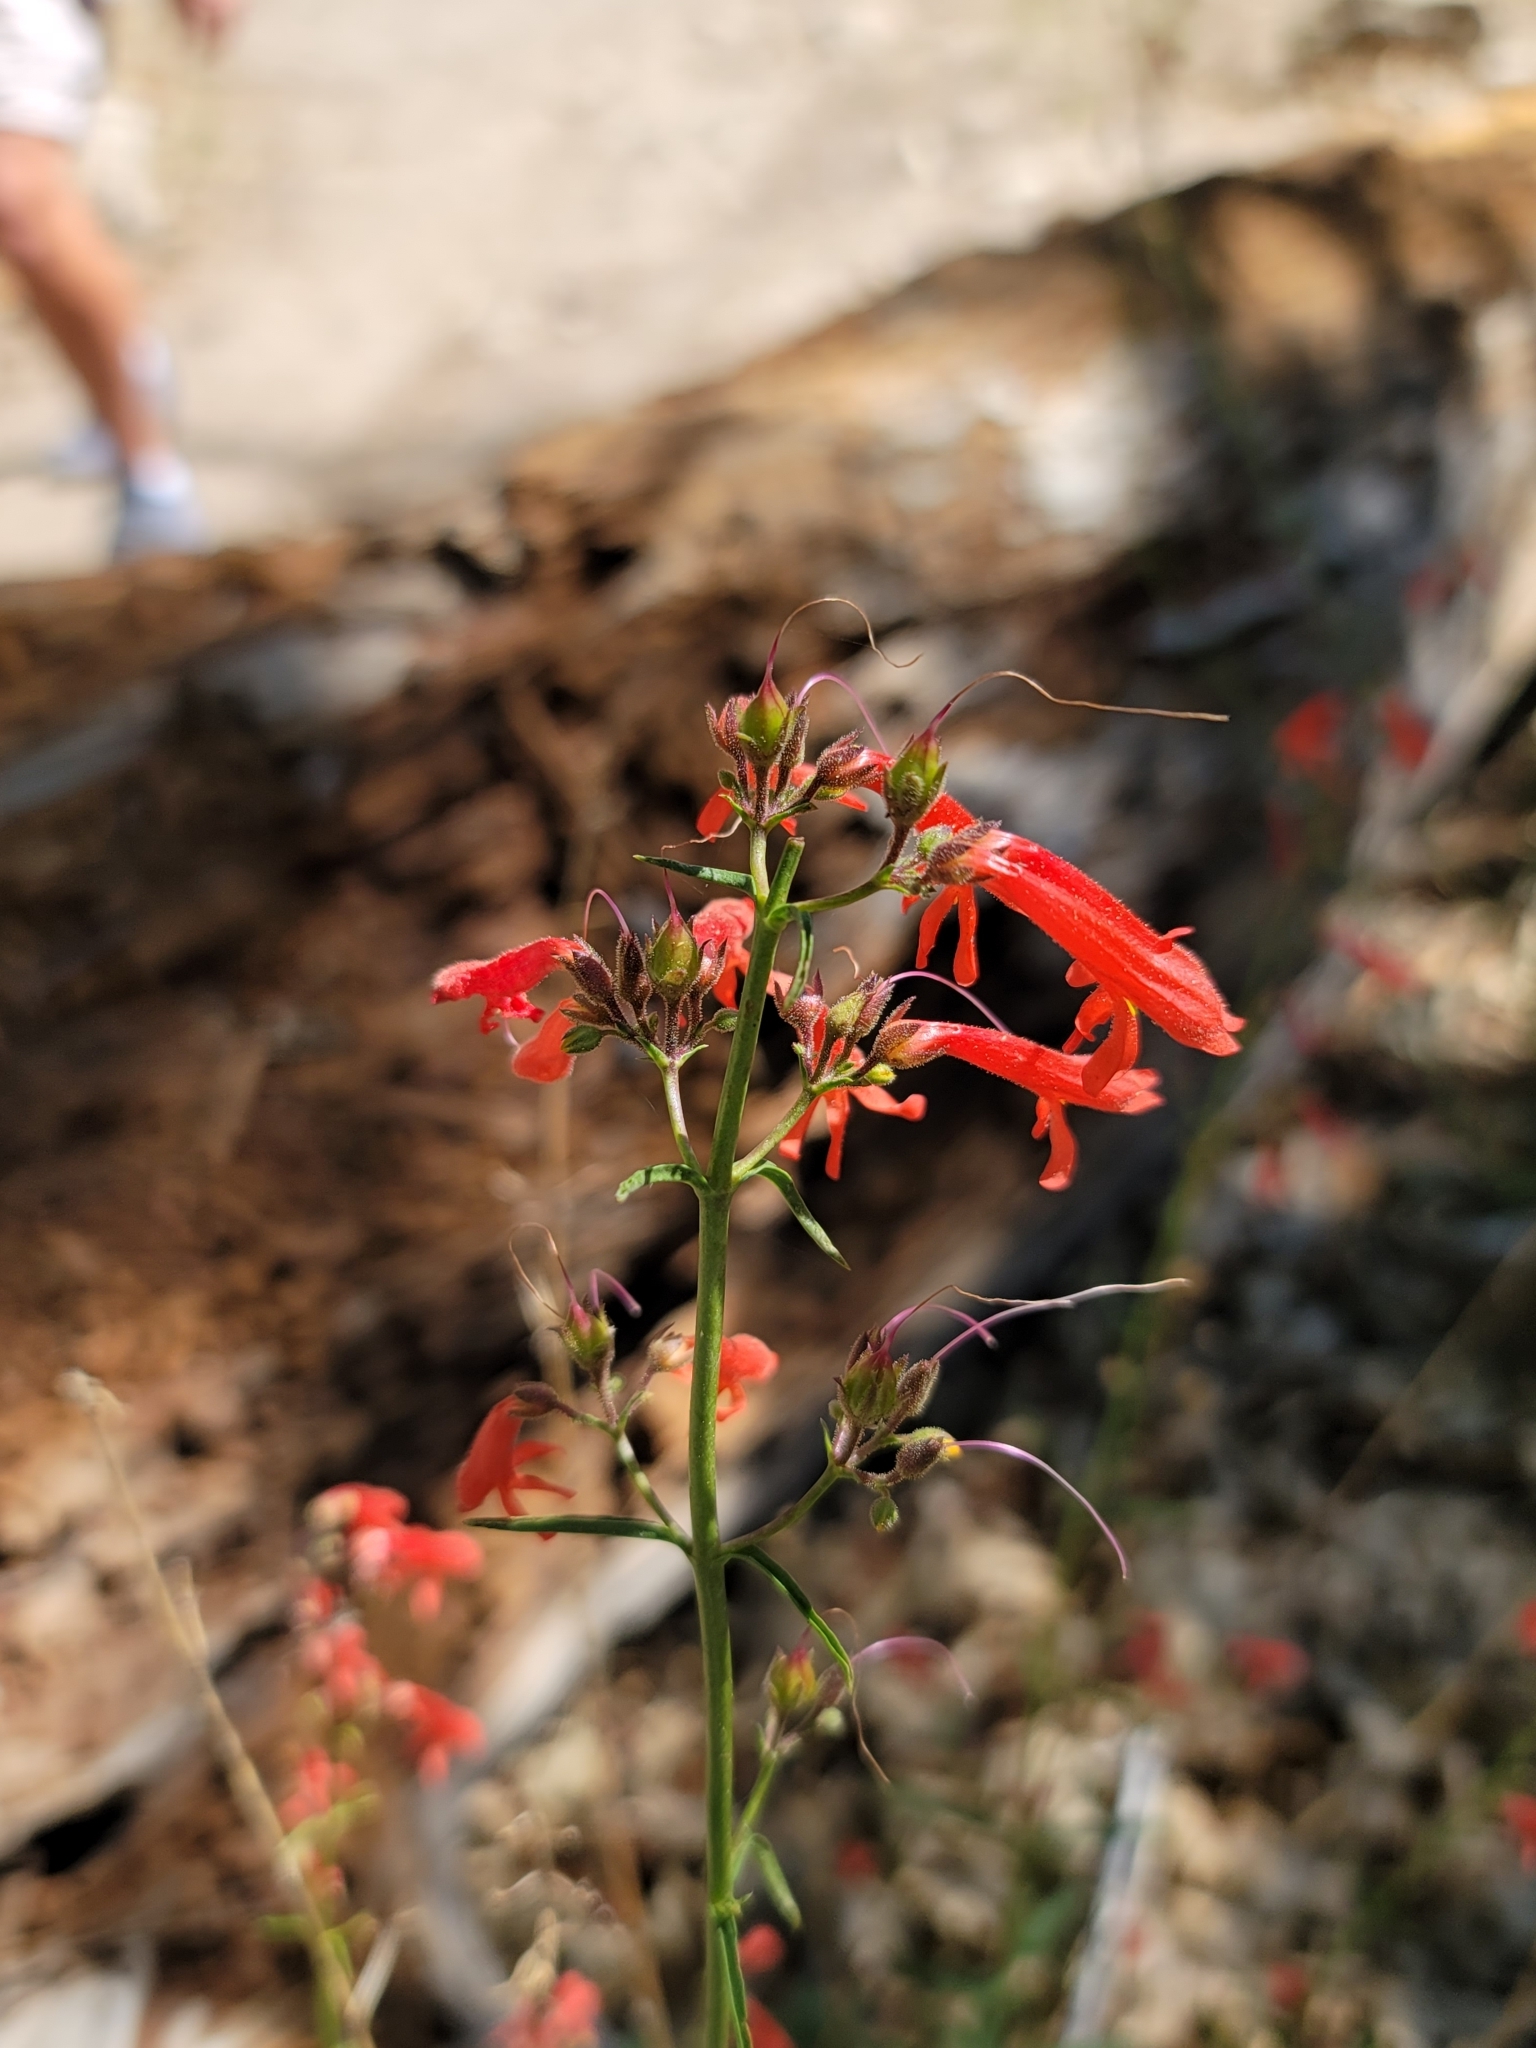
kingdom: Plantae
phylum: Tracheophyta
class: Magnoliopsida
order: Lamiales
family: Plantaginaceae
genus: Penstemon
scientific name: Penstemon rostriflorus
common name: Bridges's penstemon
